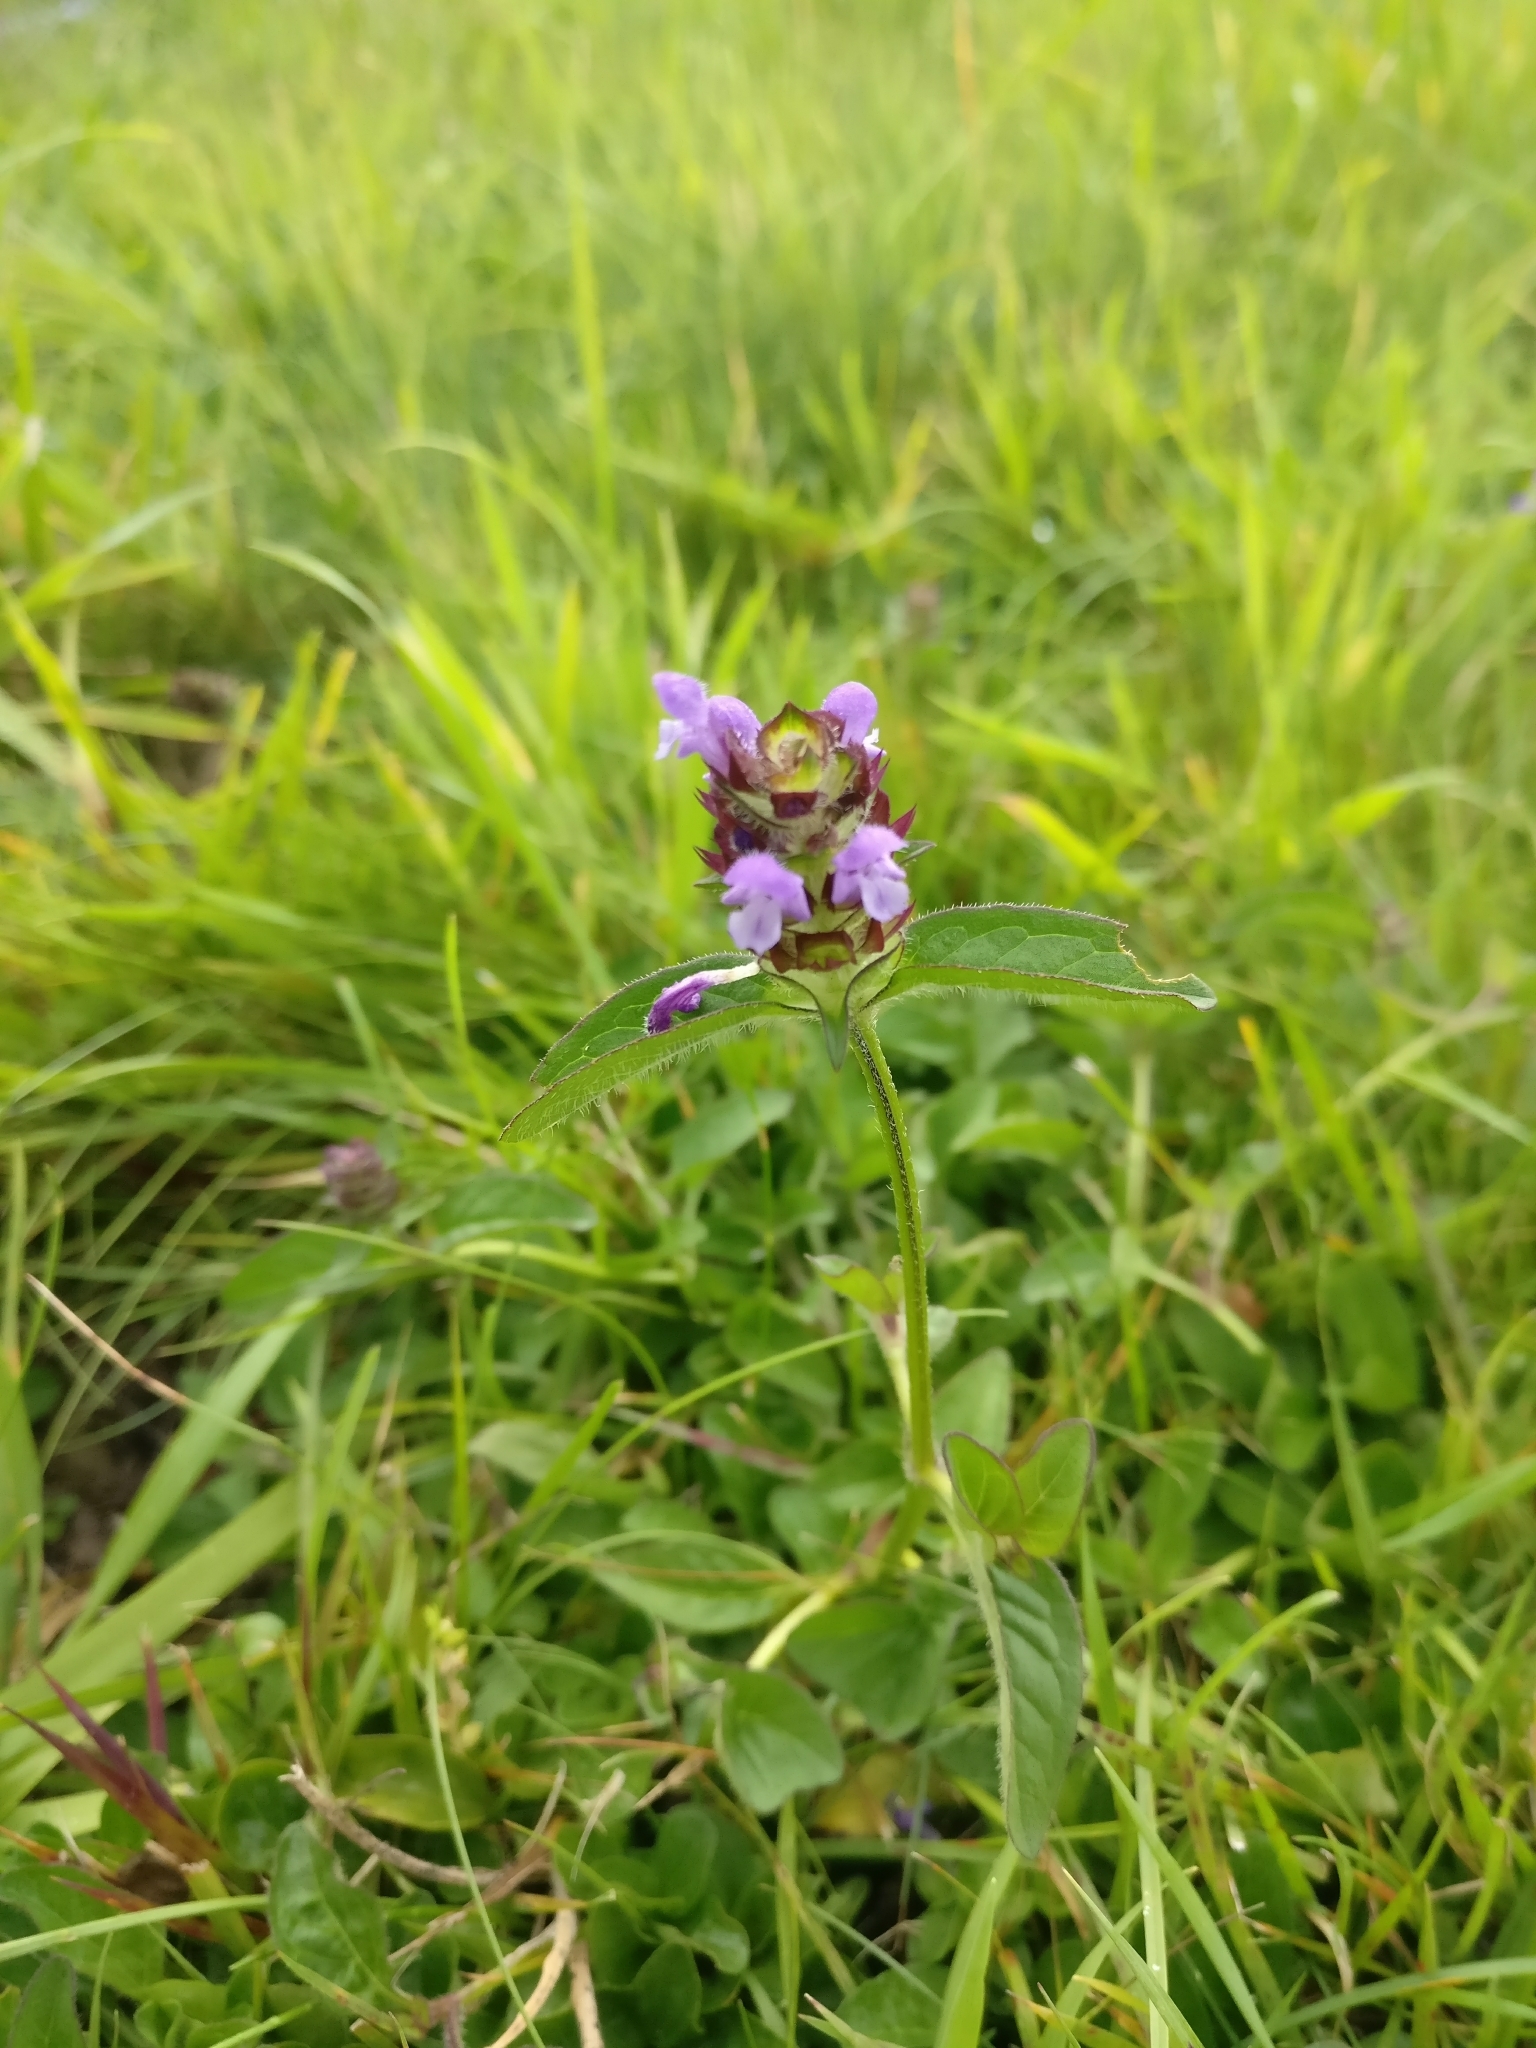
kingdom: Plantae
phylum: Tracheophyta
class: Magnoliopsida
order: Lamiales
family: Lamiaceae
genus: Prunella
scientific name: Prunella vulgaris
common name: Heal-all
